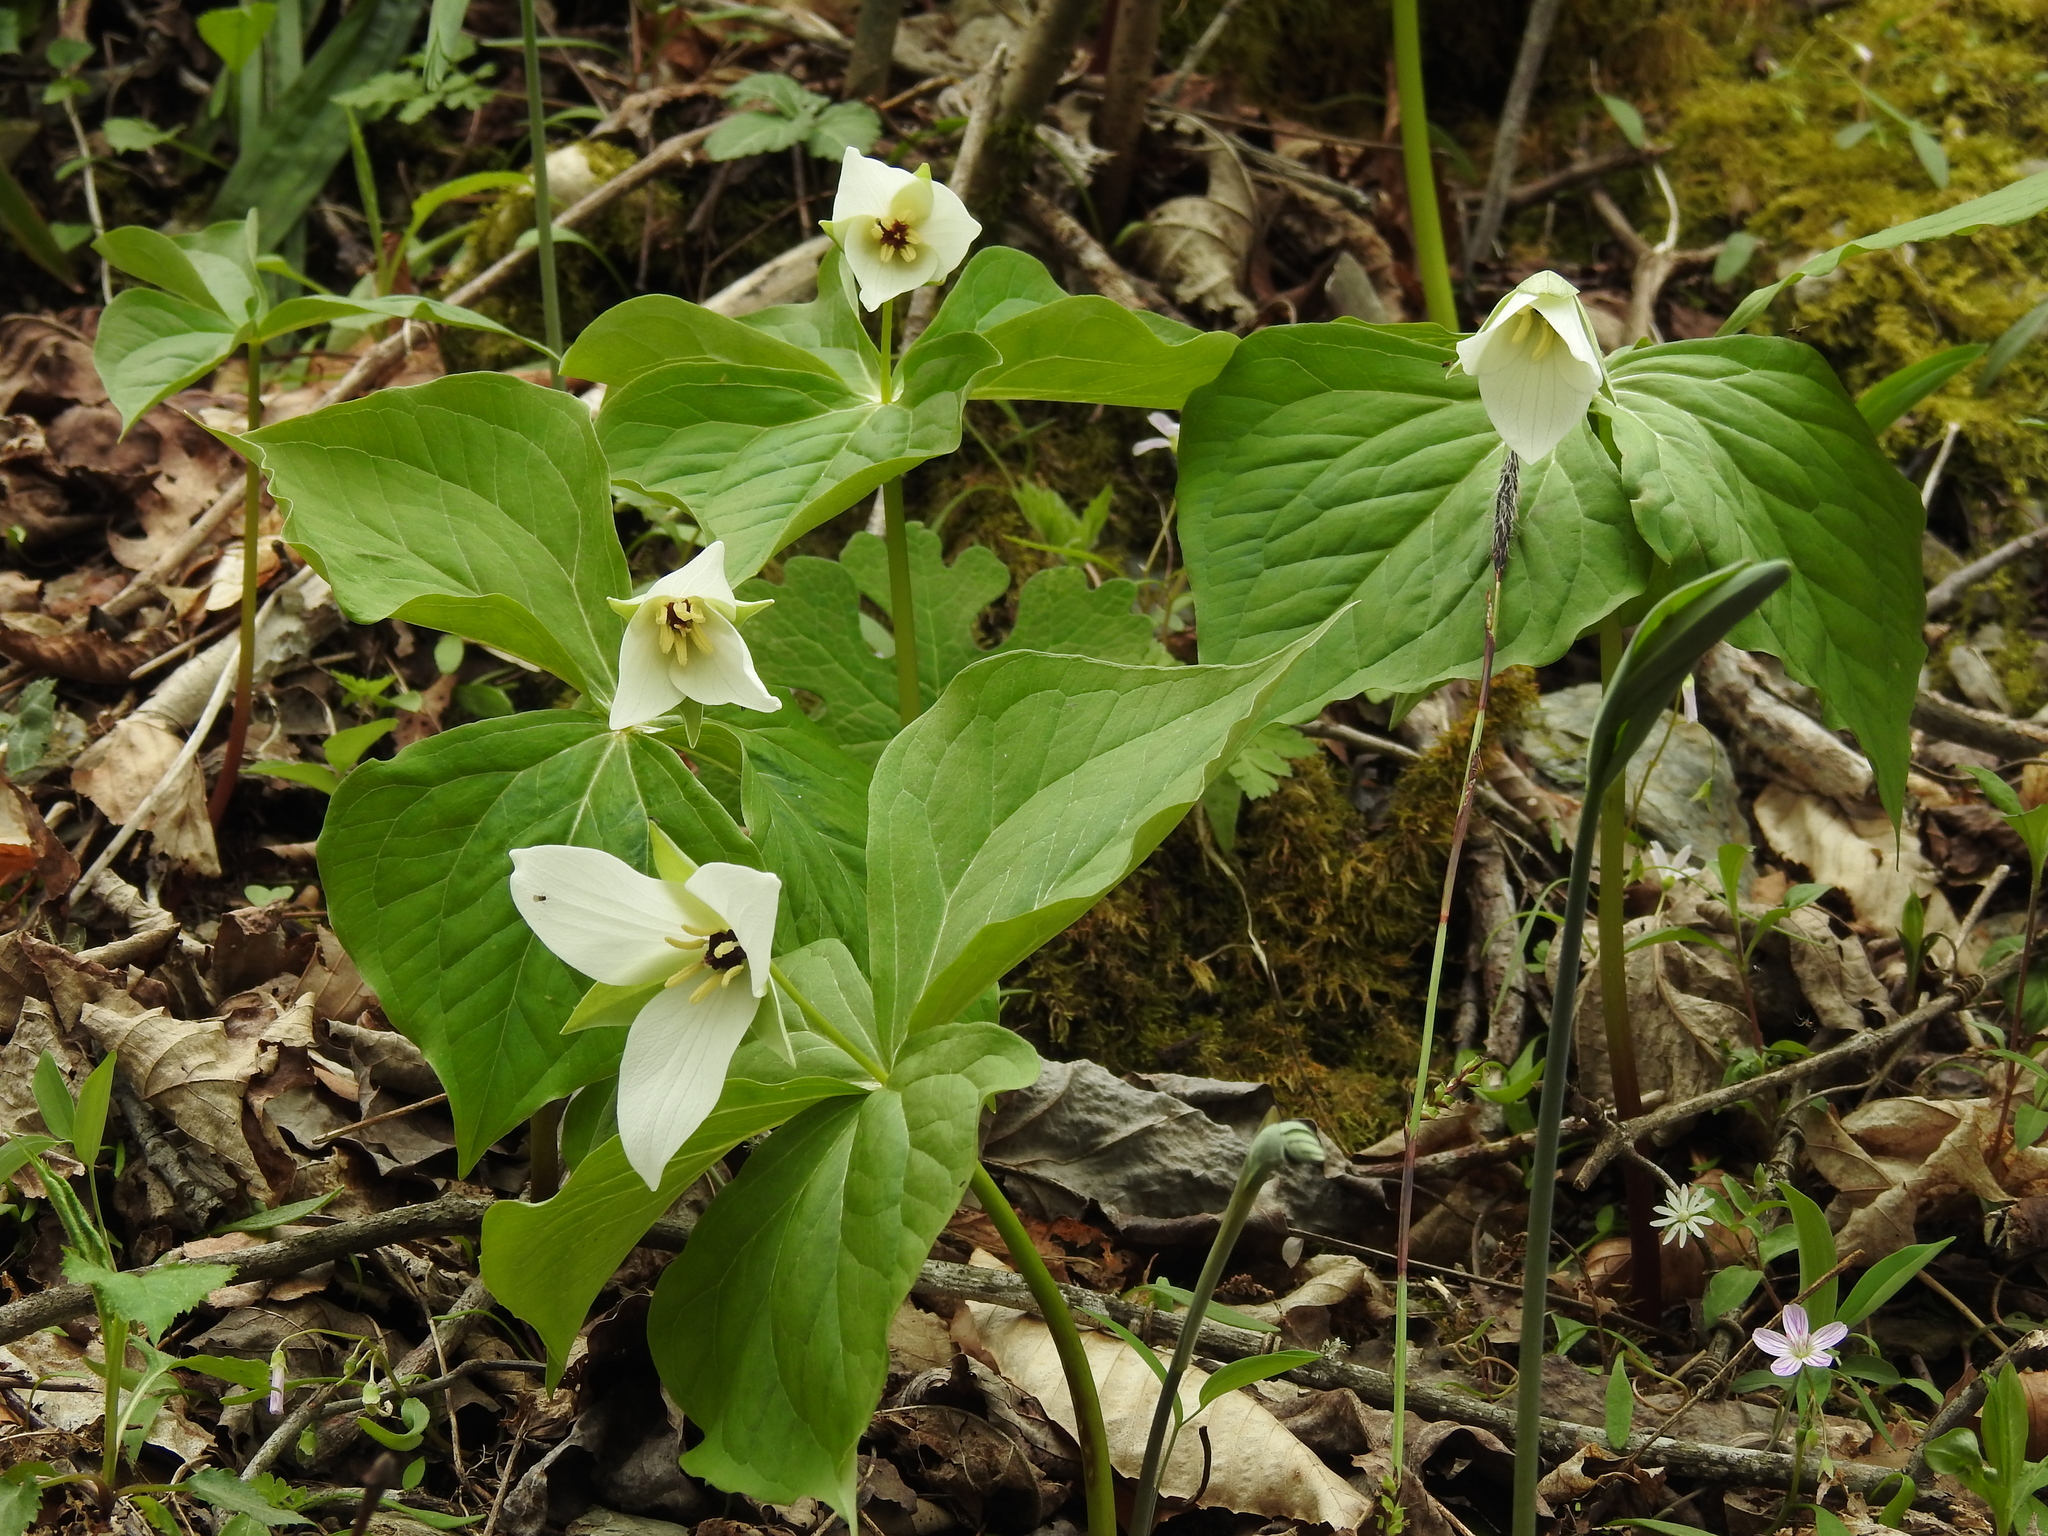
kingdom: Plantae
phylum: Tracheophyta
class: Liliopsida
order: Liliales
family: Melanthiaceae
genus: Trillium
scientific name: Trillium simile
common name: Confusing trillium
